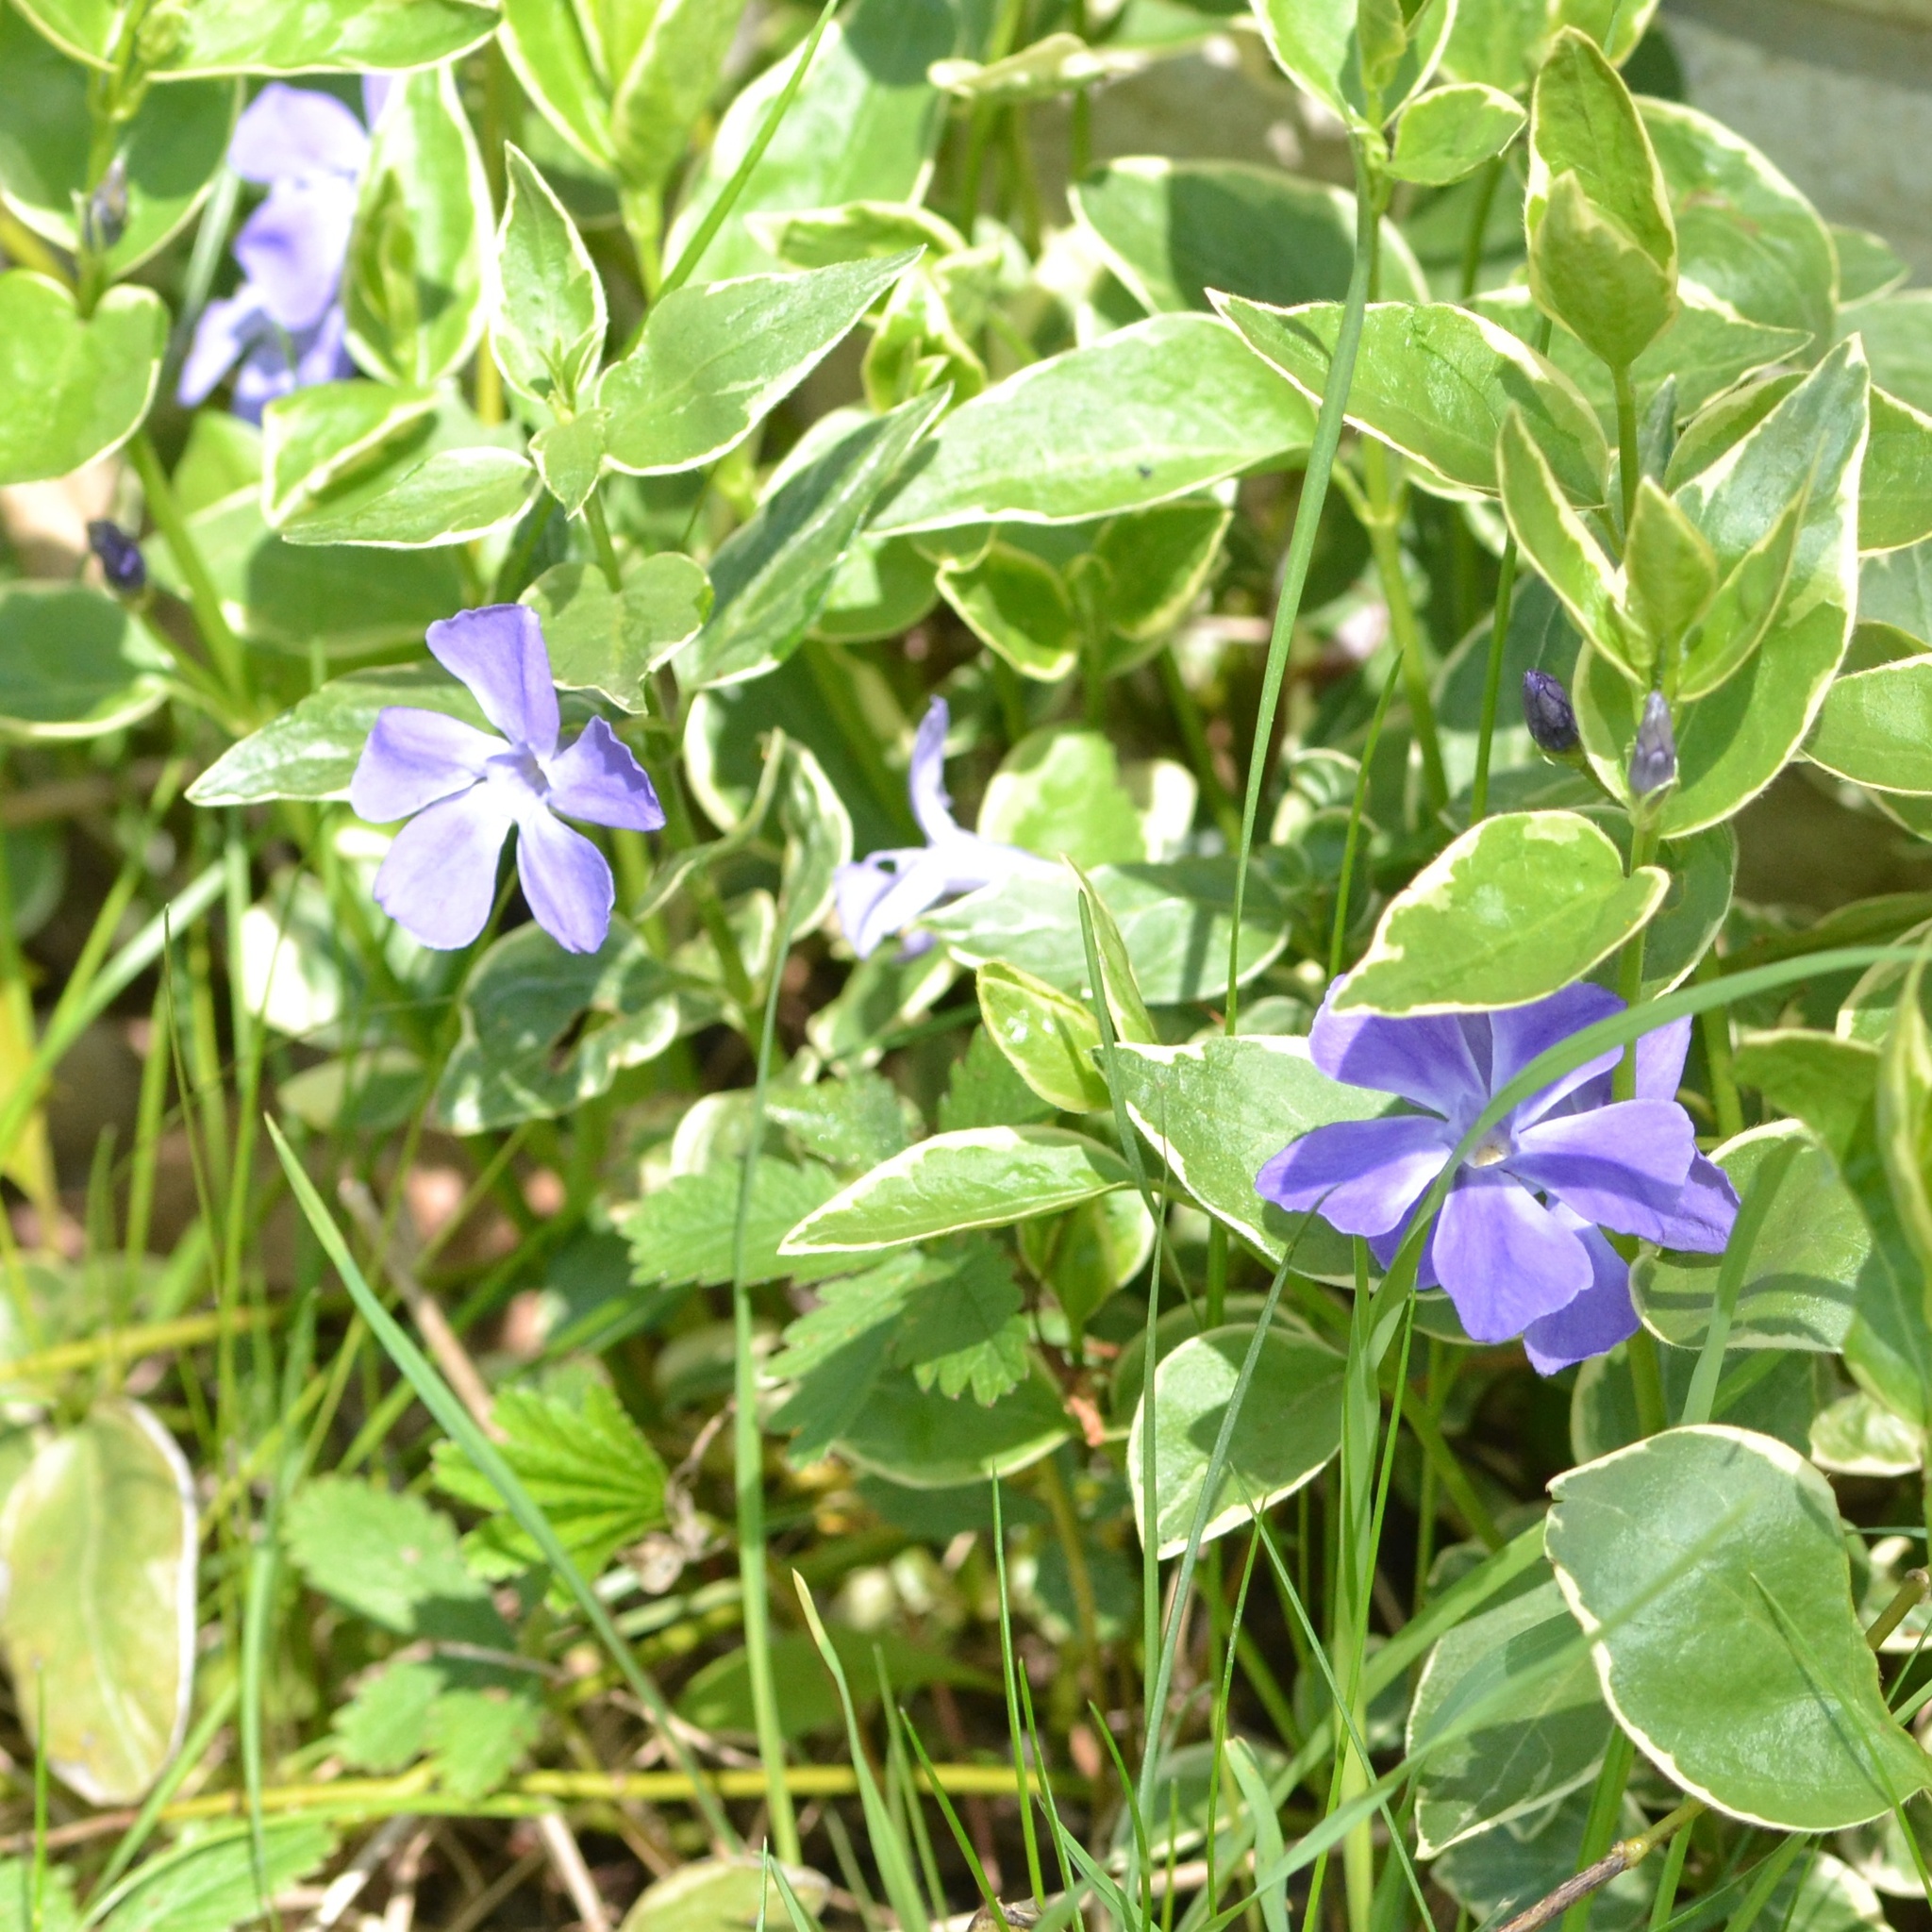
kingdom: Plantae
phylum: Tracheophyta
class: Magnoliopsida
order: Gentianales
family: Apocynaceae
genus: Vinca
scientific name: Vinca major
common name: Greater periwinkle
